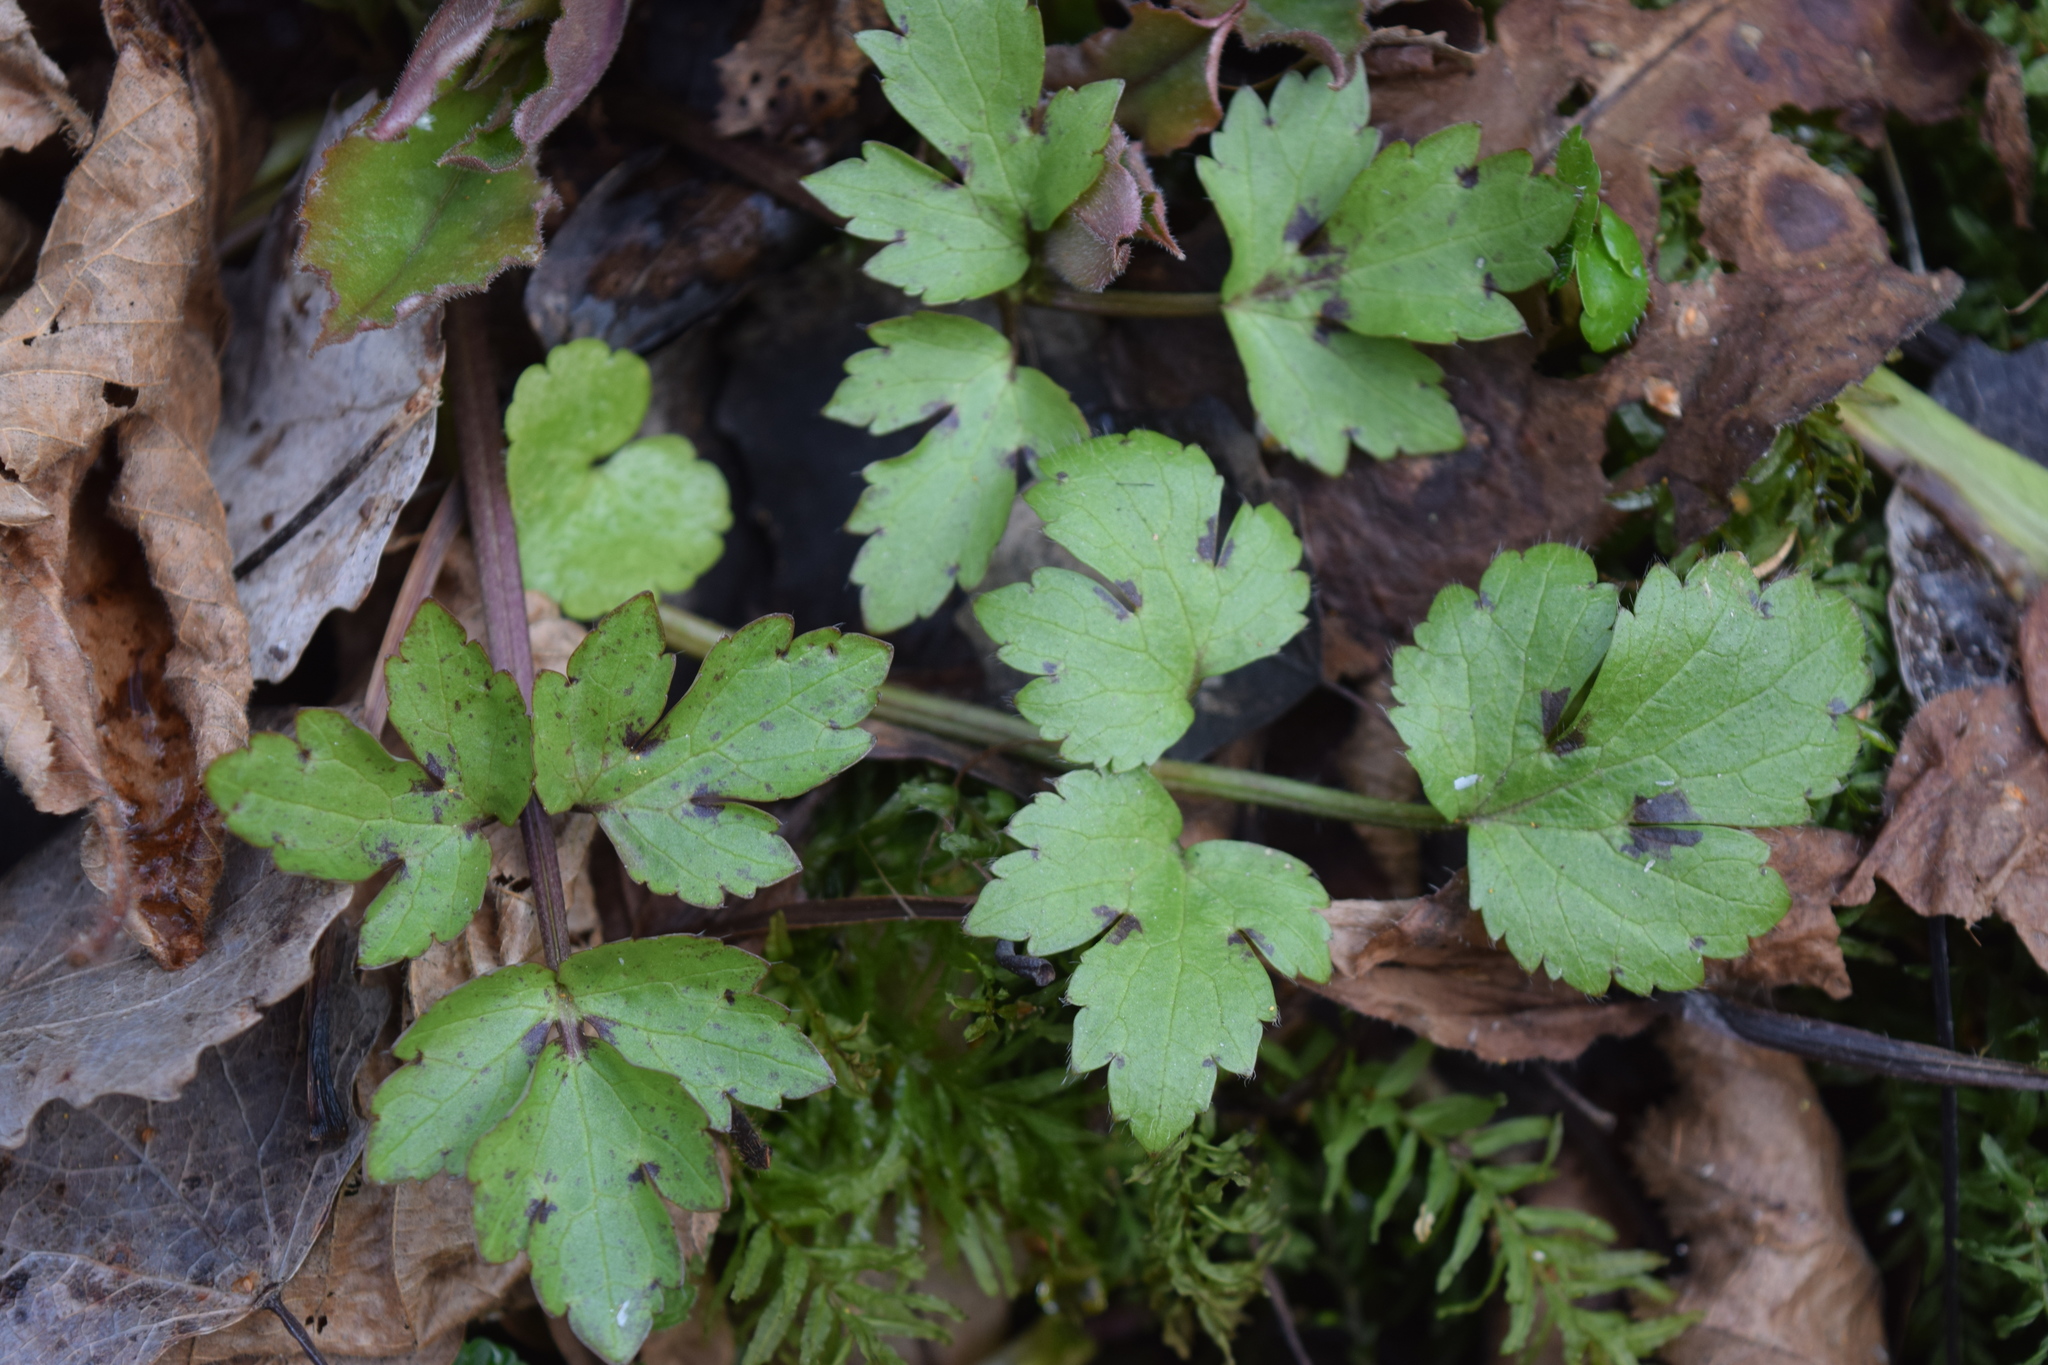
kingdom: Plantae
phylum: Tracheophyta
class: Magnoliopsida
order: Ranunculales
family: Ranunculaceae
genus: Ranunculus
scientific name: Ranunculus repens
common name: Creeping buttercup
